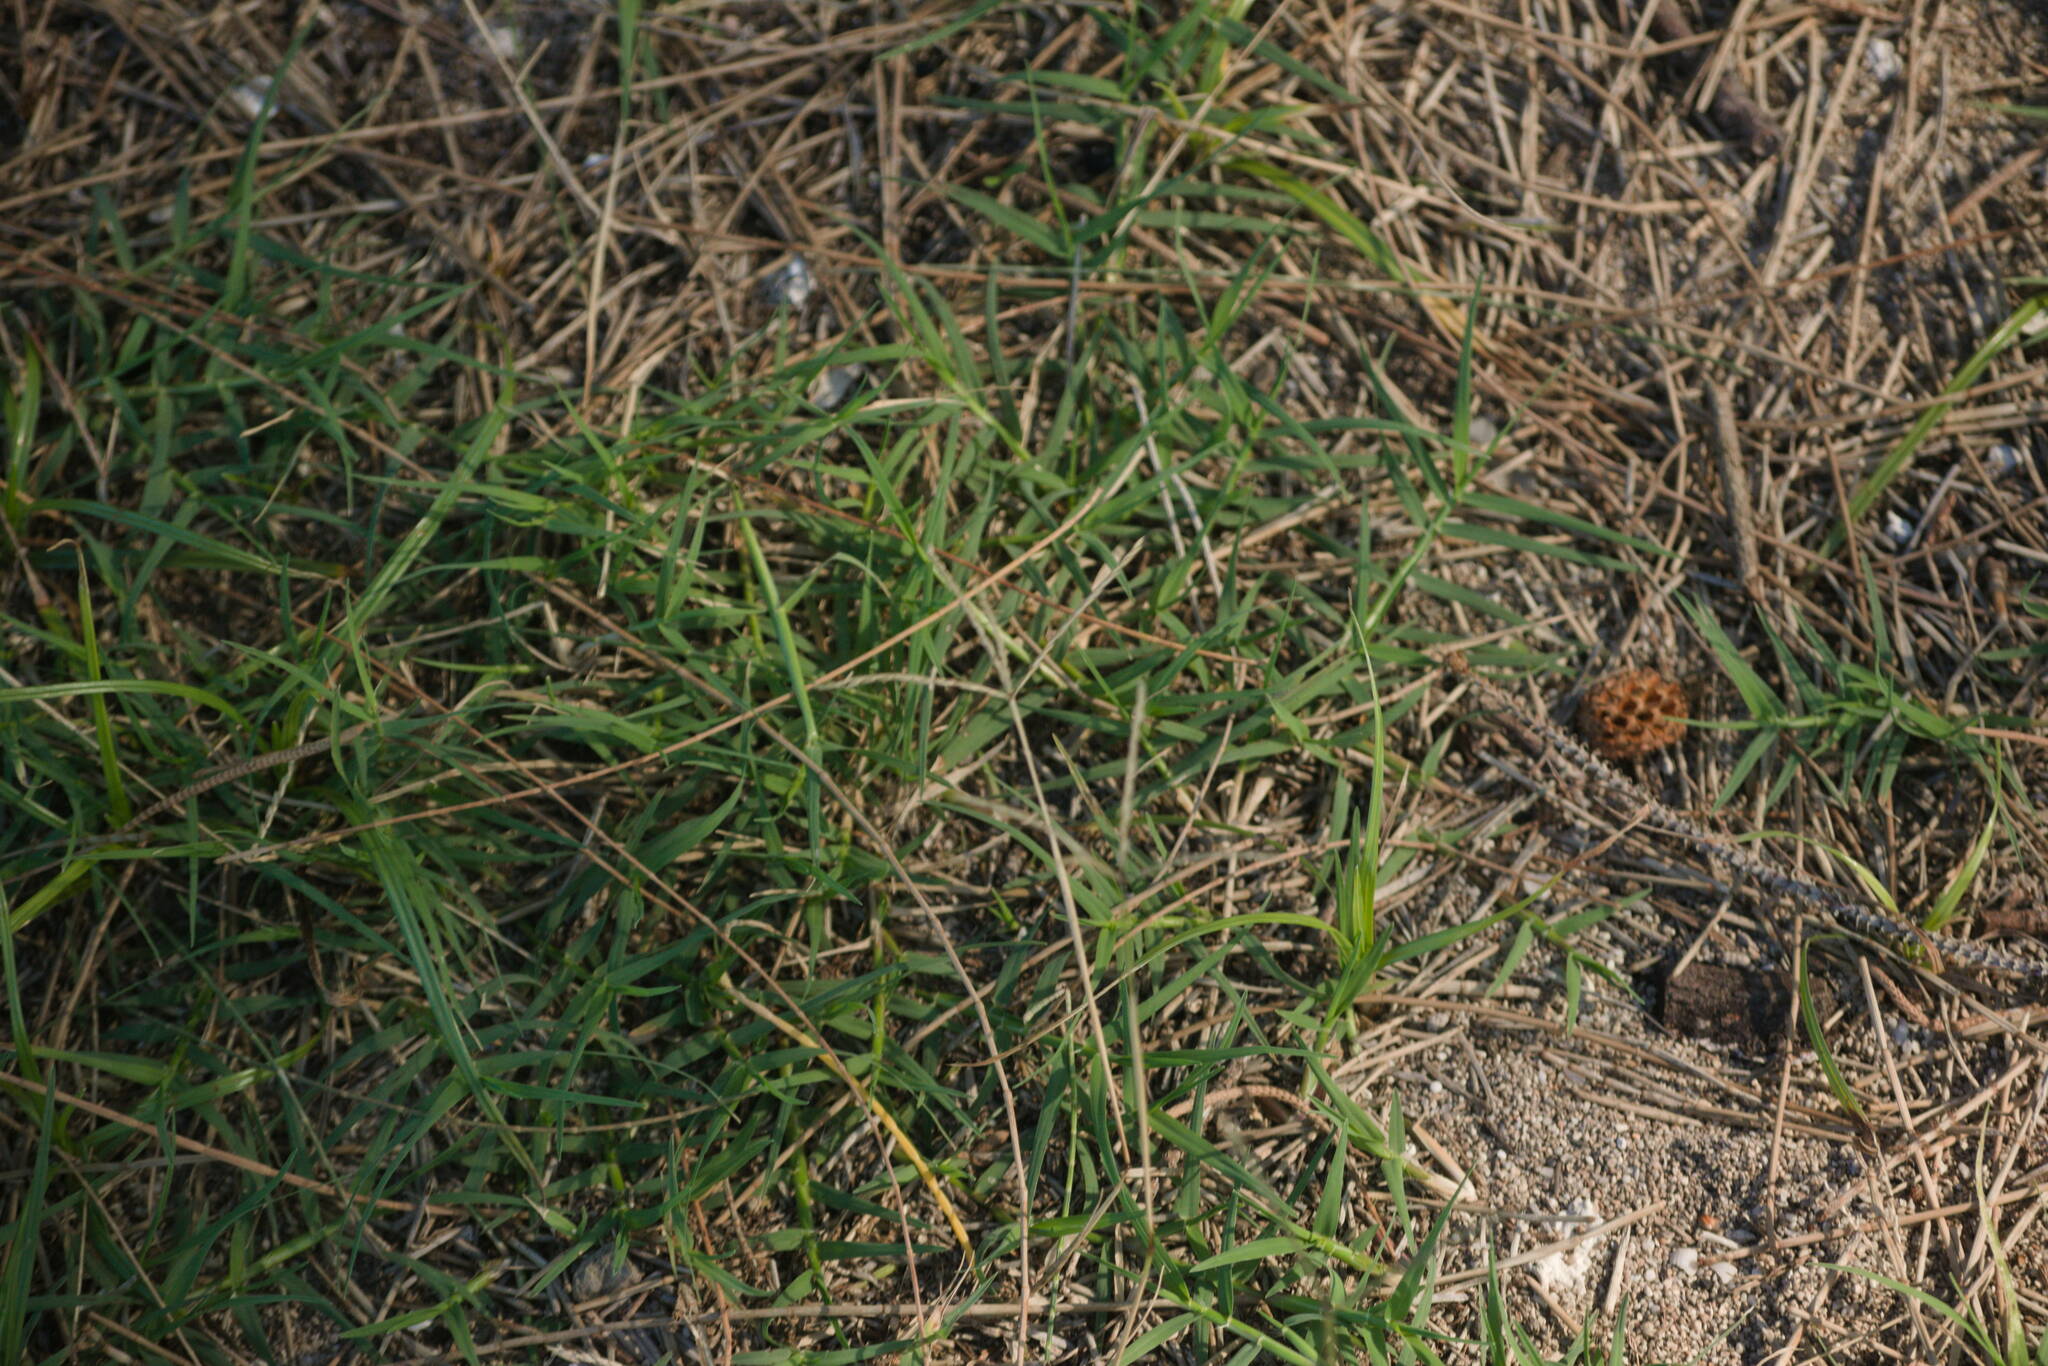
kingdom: Plantae
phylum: Tracheophyta
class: Liliopsida
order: Poales
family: Poaceae
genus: Chloris
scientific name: Chloris divaricata
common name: Spreading windmill grass
